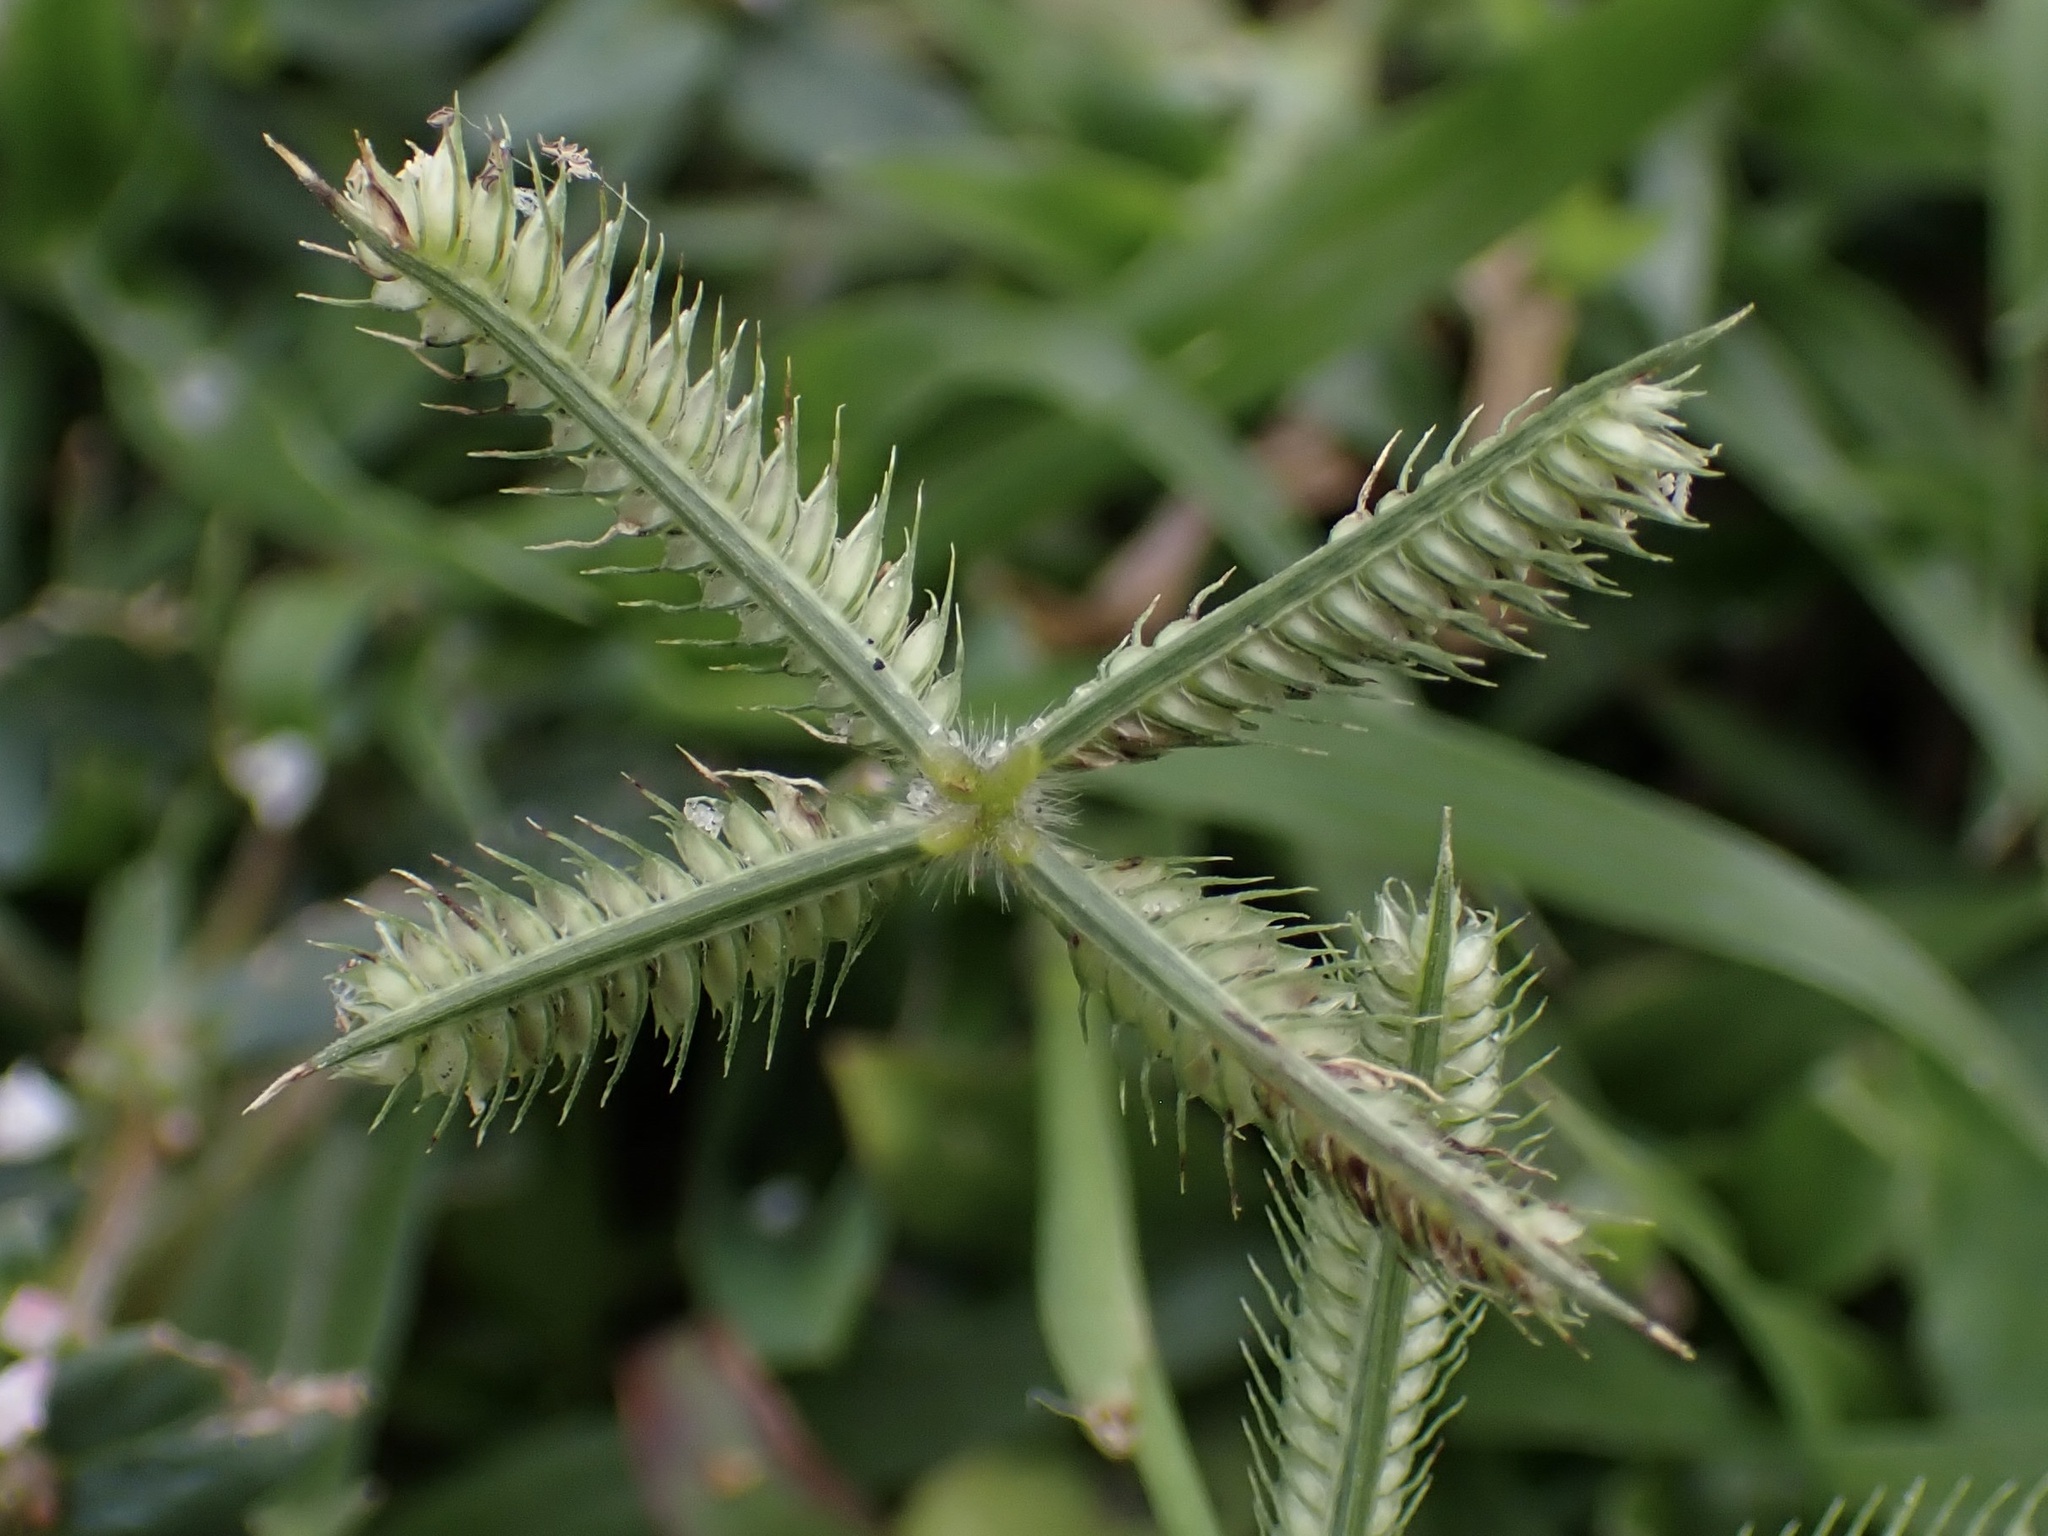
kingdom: Plantae
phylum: Tracheophyta
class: Liliopsida
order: Poales
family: Poaceae
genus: Dactyloctenium
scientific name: Dactyloctenium aegyptium
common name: Egyptian grass
